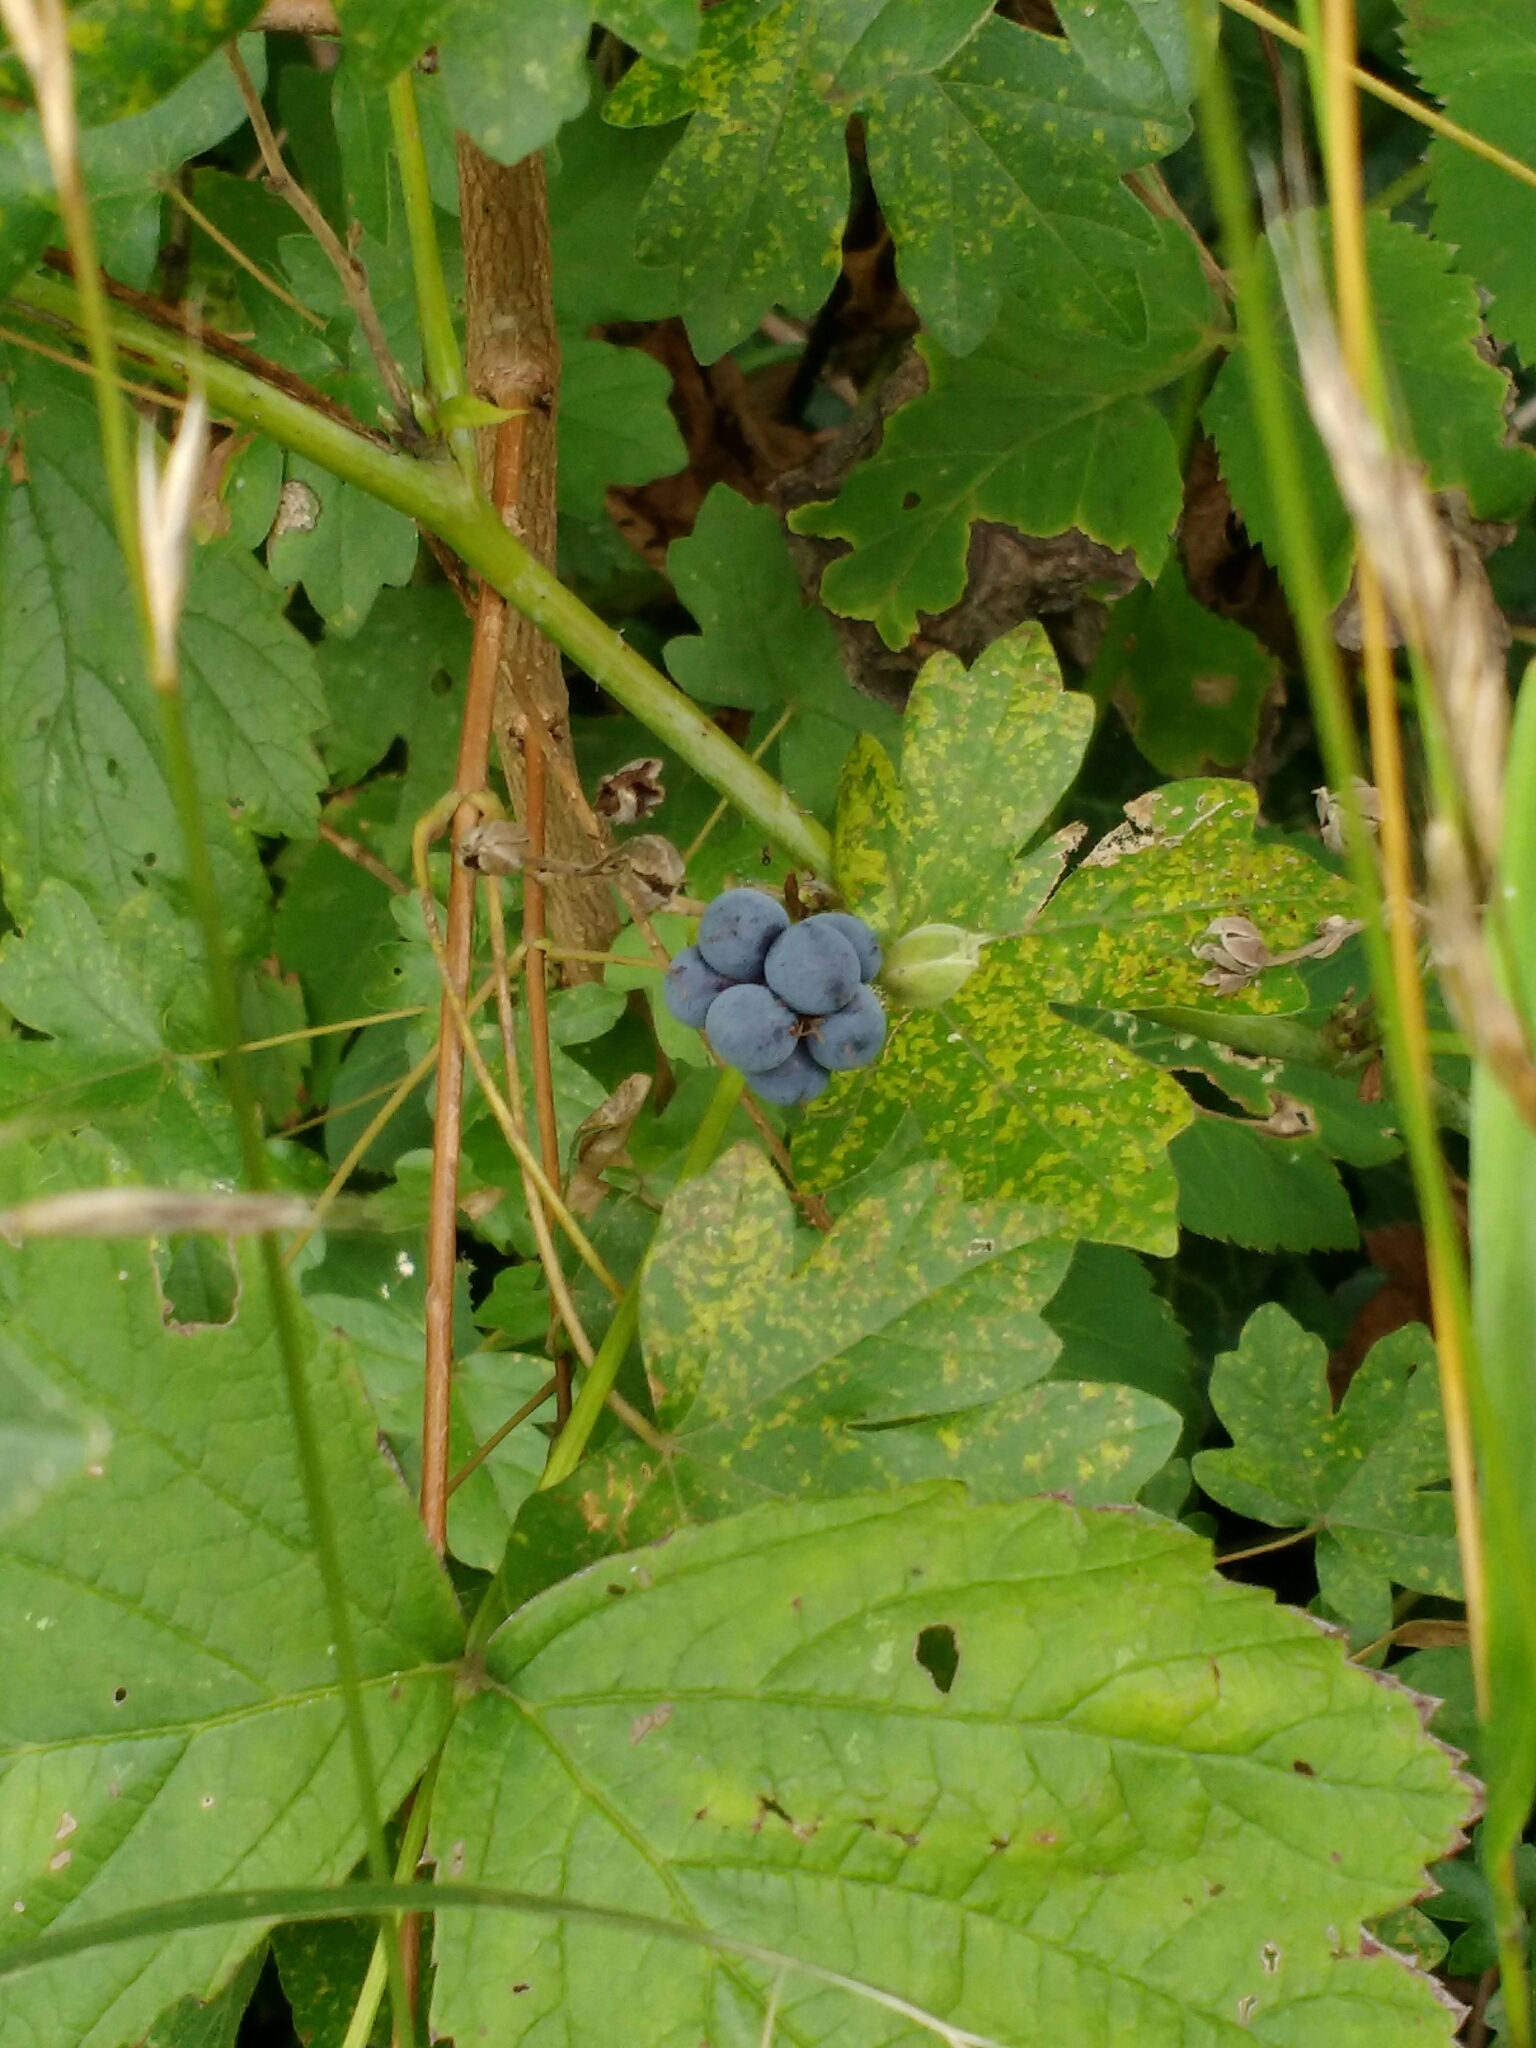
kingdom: Plantae
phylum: Tracheophyta
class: Magnoliopsida
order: Rosales
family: Rosaceae
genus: Rubus
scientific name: Rubus caesius
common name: Dewberry
